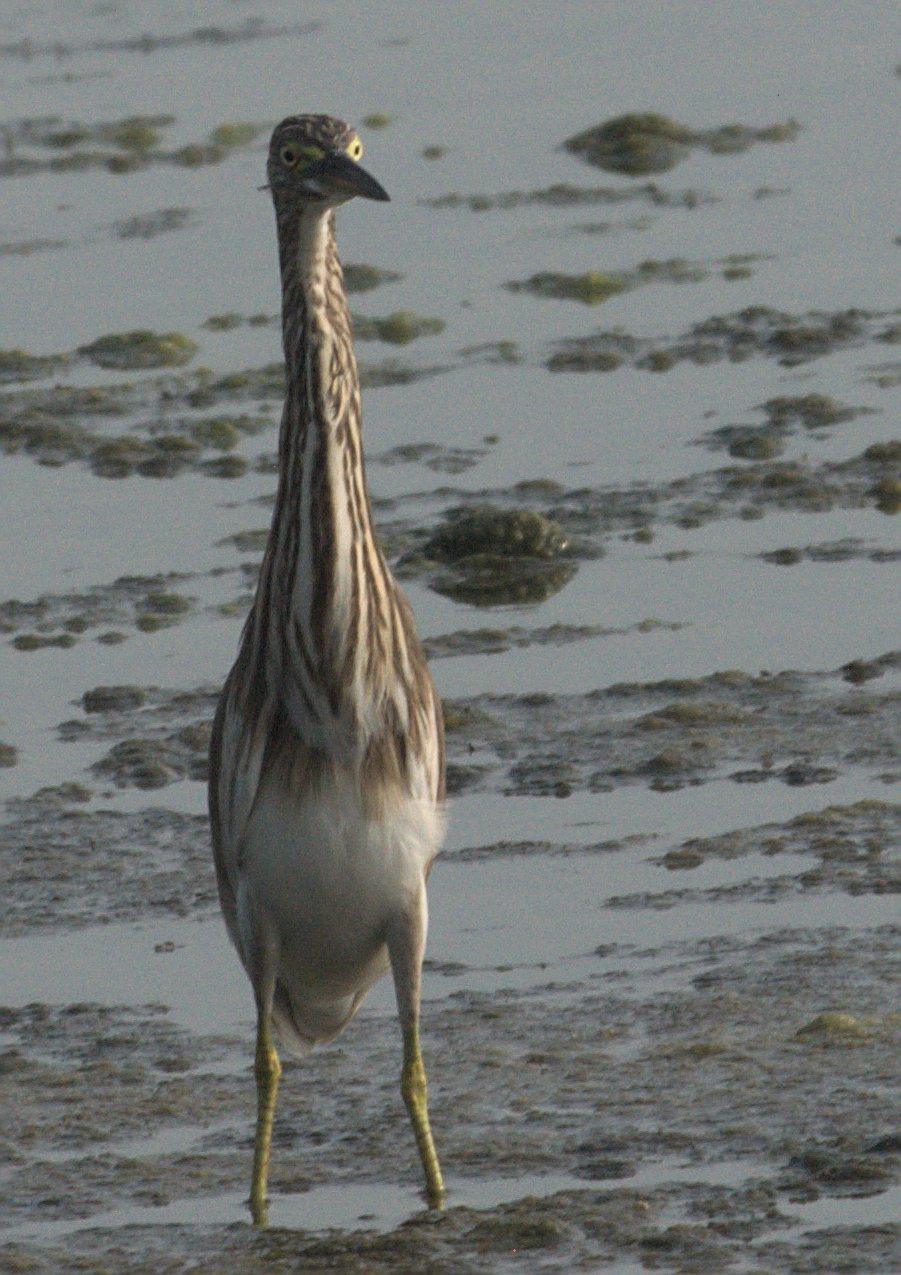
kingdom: Animalia
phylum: Chordata
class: Aves
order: Pelecaniformes
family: Ardeidae
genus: Ardeola
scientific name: Ardeola grayii
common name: Indian pond heron
